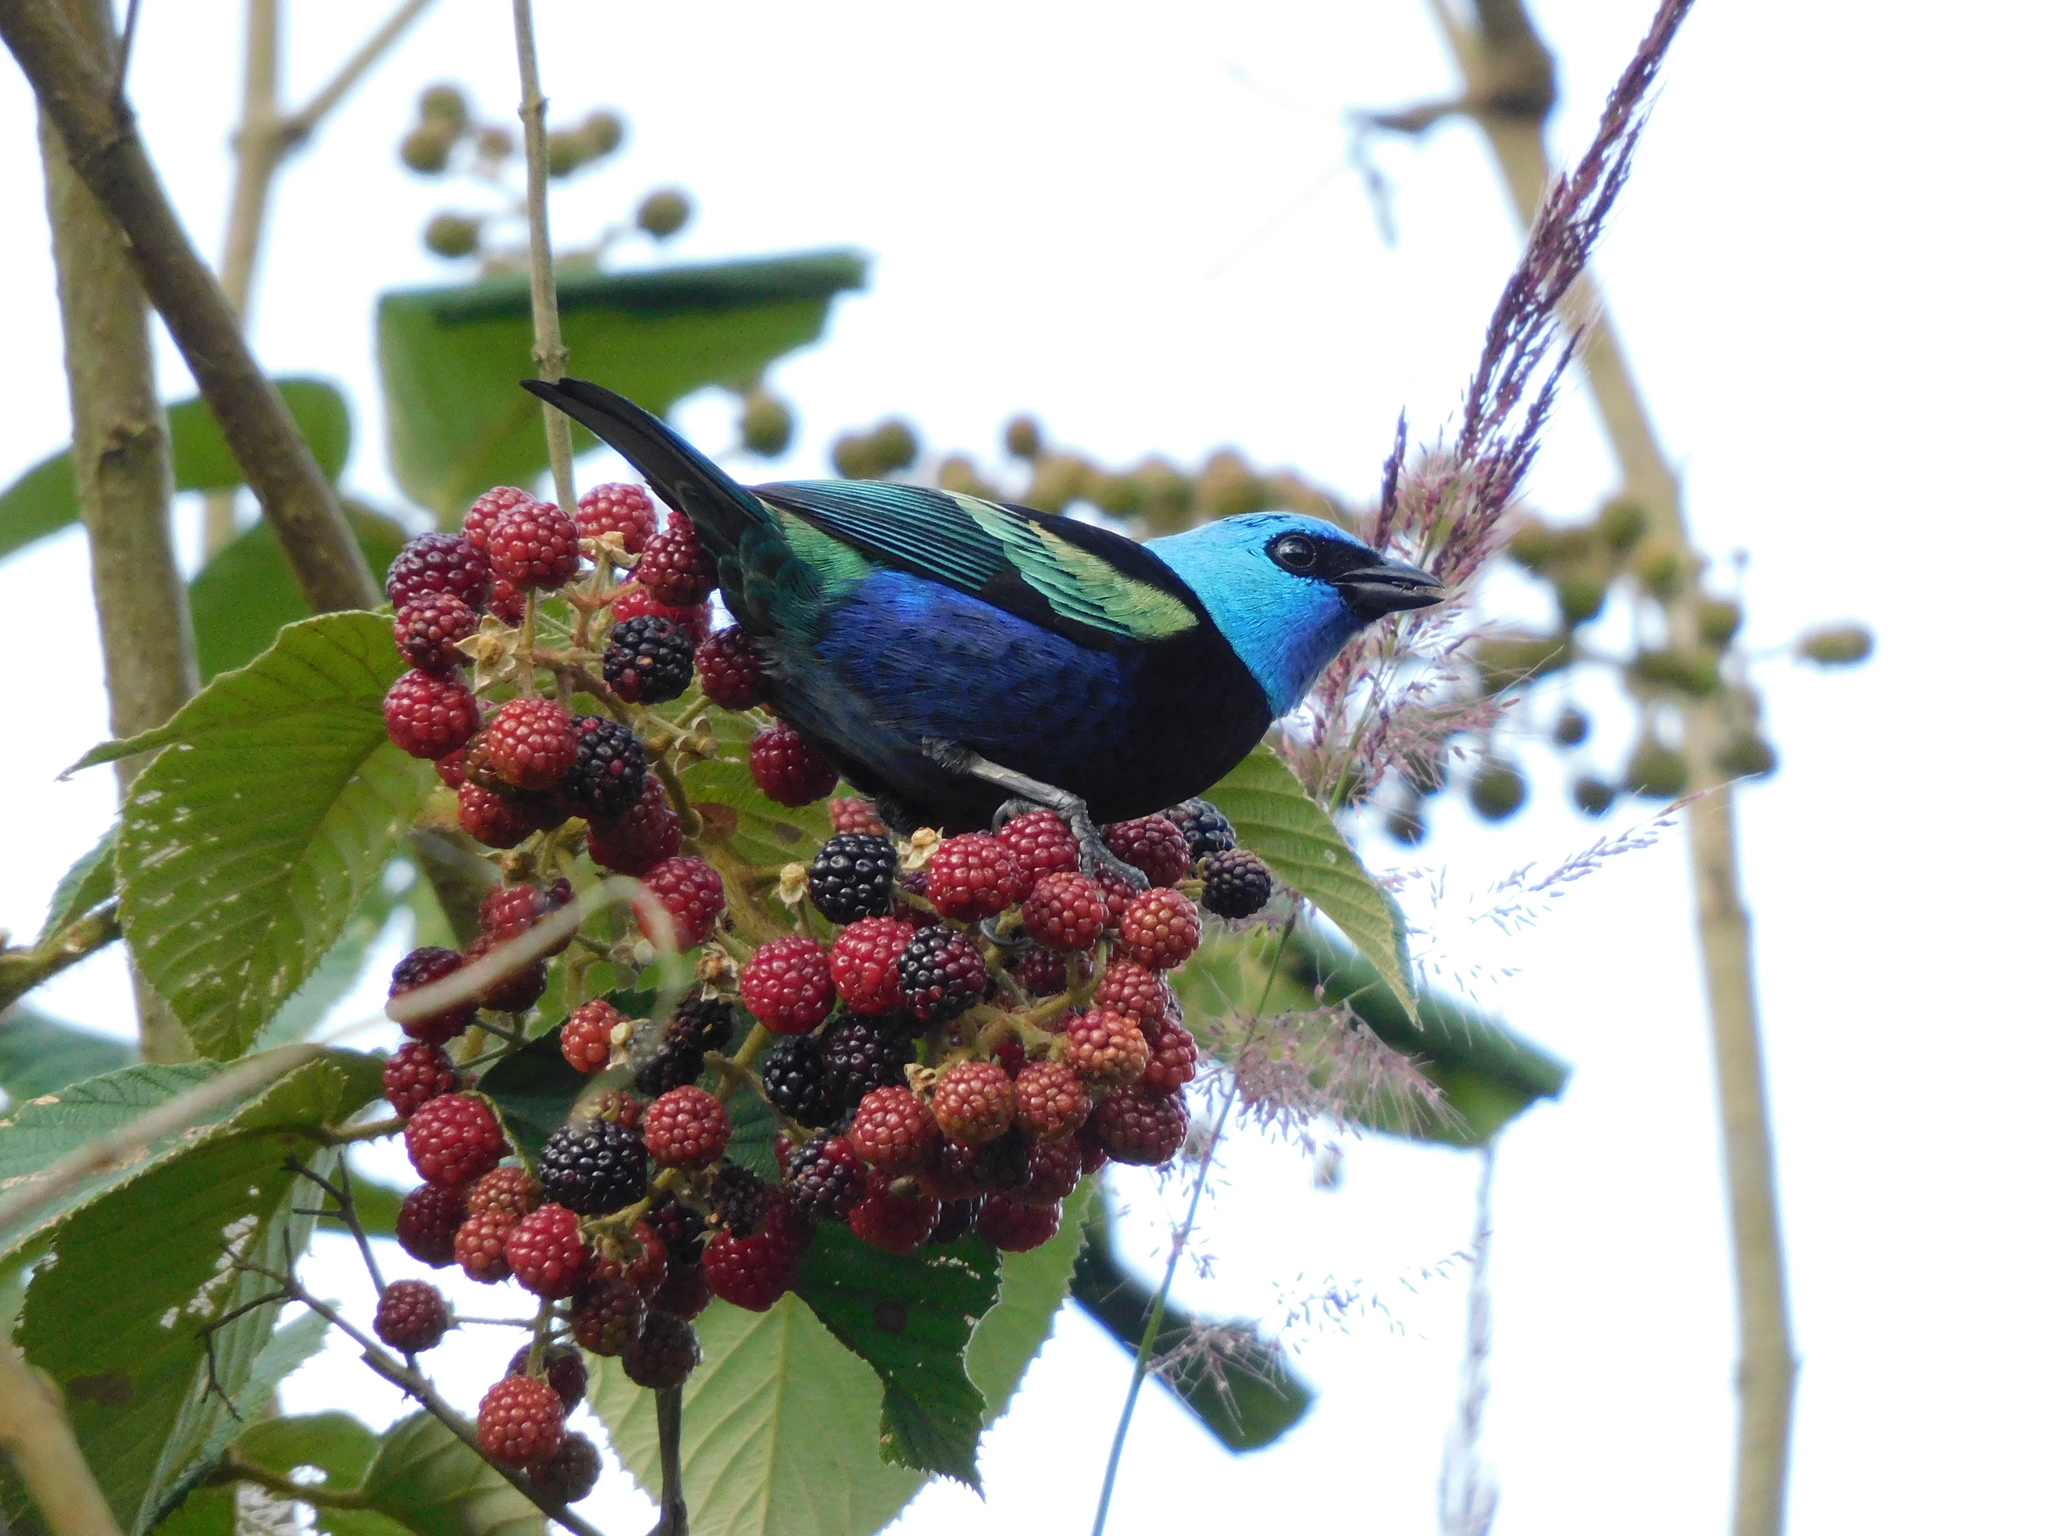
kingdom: Animalia
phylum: Chordata
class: Aves
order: Passeriformes
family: Thraupidae
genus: Stilpnia
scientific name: Stilpnia cyanicollis
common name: Blue-necked tanager
